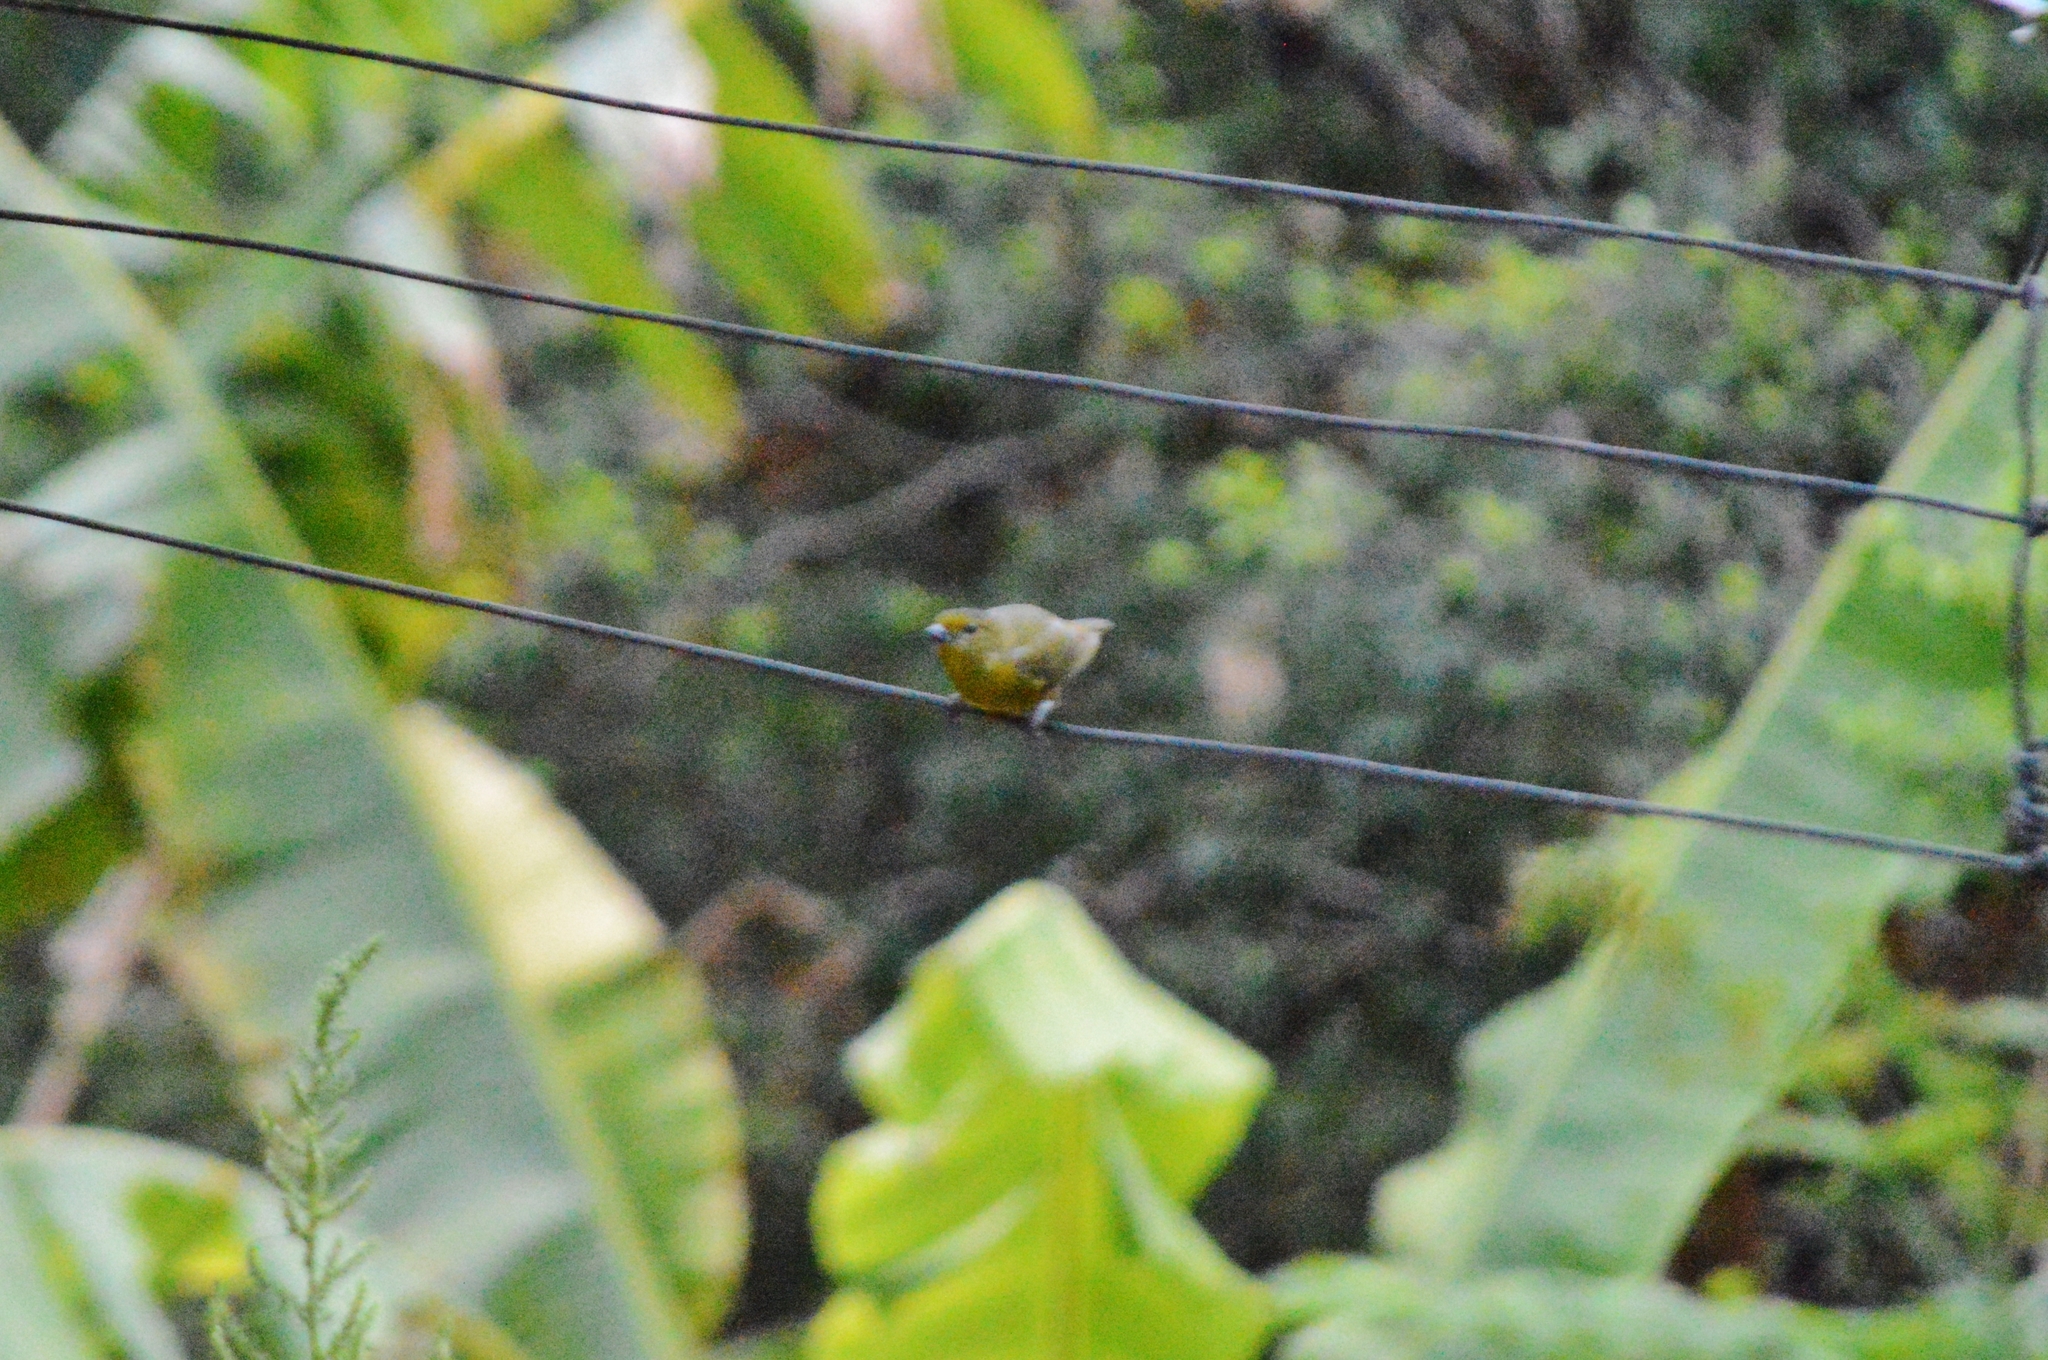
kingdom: Animalia
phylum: Chordata
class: Aves
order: Passeriformes
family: Fringillidae
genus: Euphonia
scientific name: Euphonia violacea
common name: Violaceous euphonia
